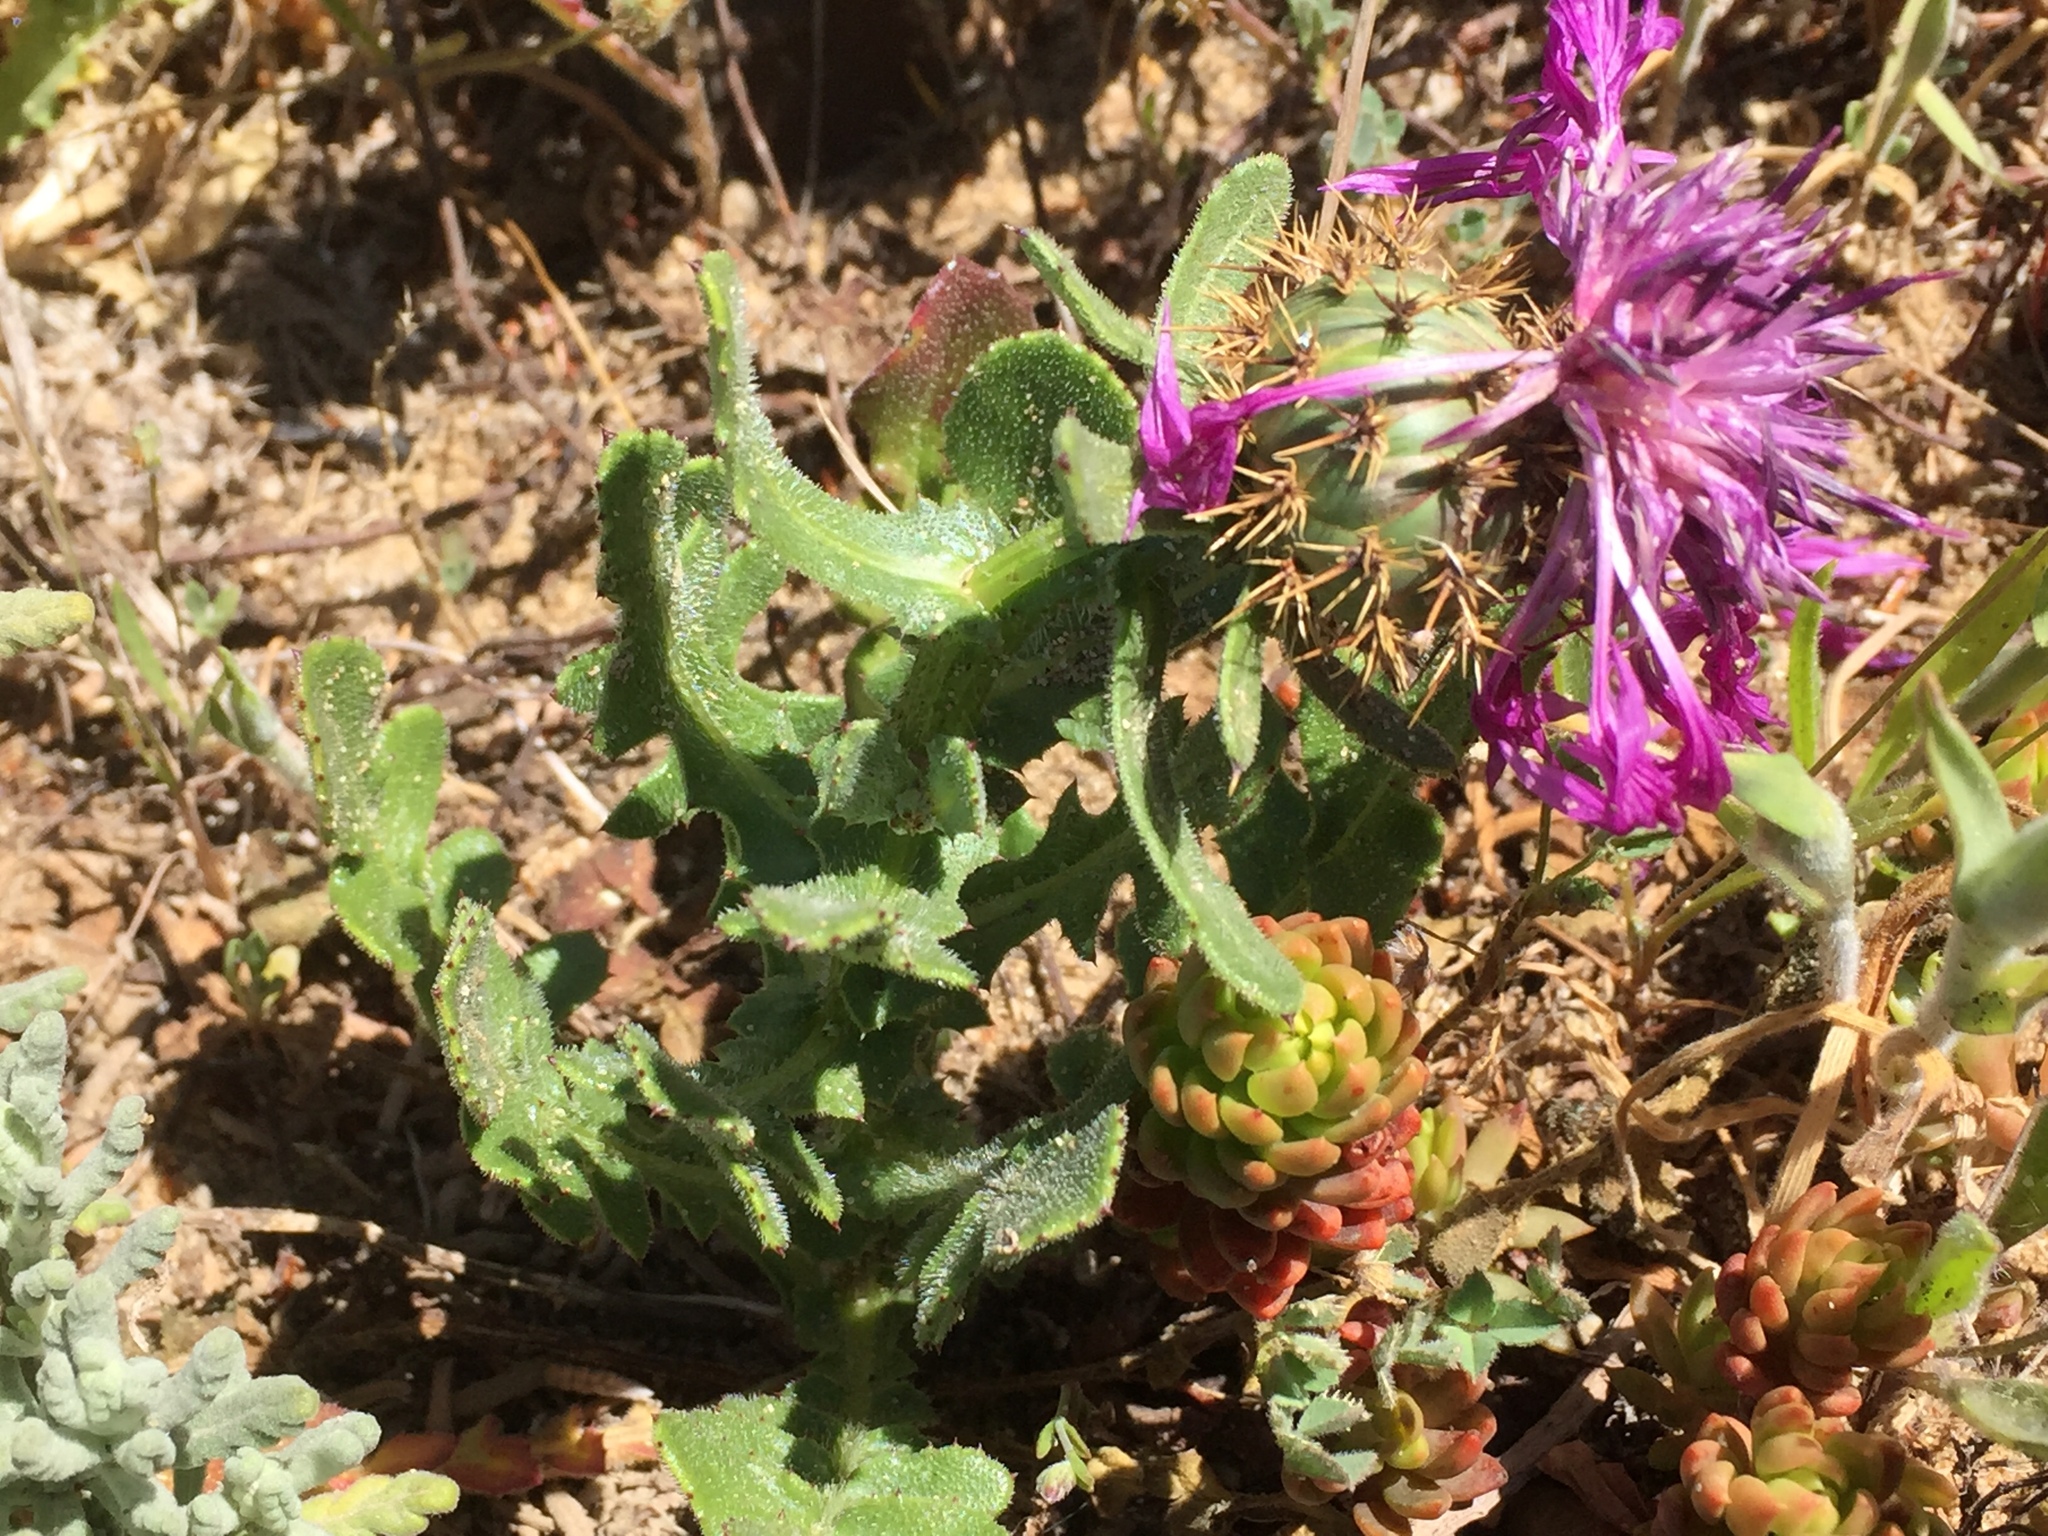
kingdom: Plantae
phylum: Tracheophyta
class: Magnoliopsida
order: Asterales
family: Asteraceae
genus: Centaurea
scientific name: Centaurea polyacantha
